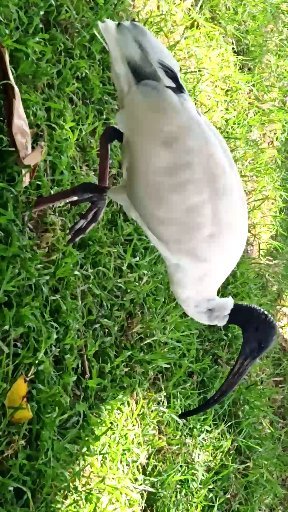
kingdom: Animalia
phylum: Chordata
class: Aves
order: Pelecaniformes
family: Threskiornithidae
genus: Threskiornis
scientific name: Threskiornis molucca
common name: Australian white ibis
